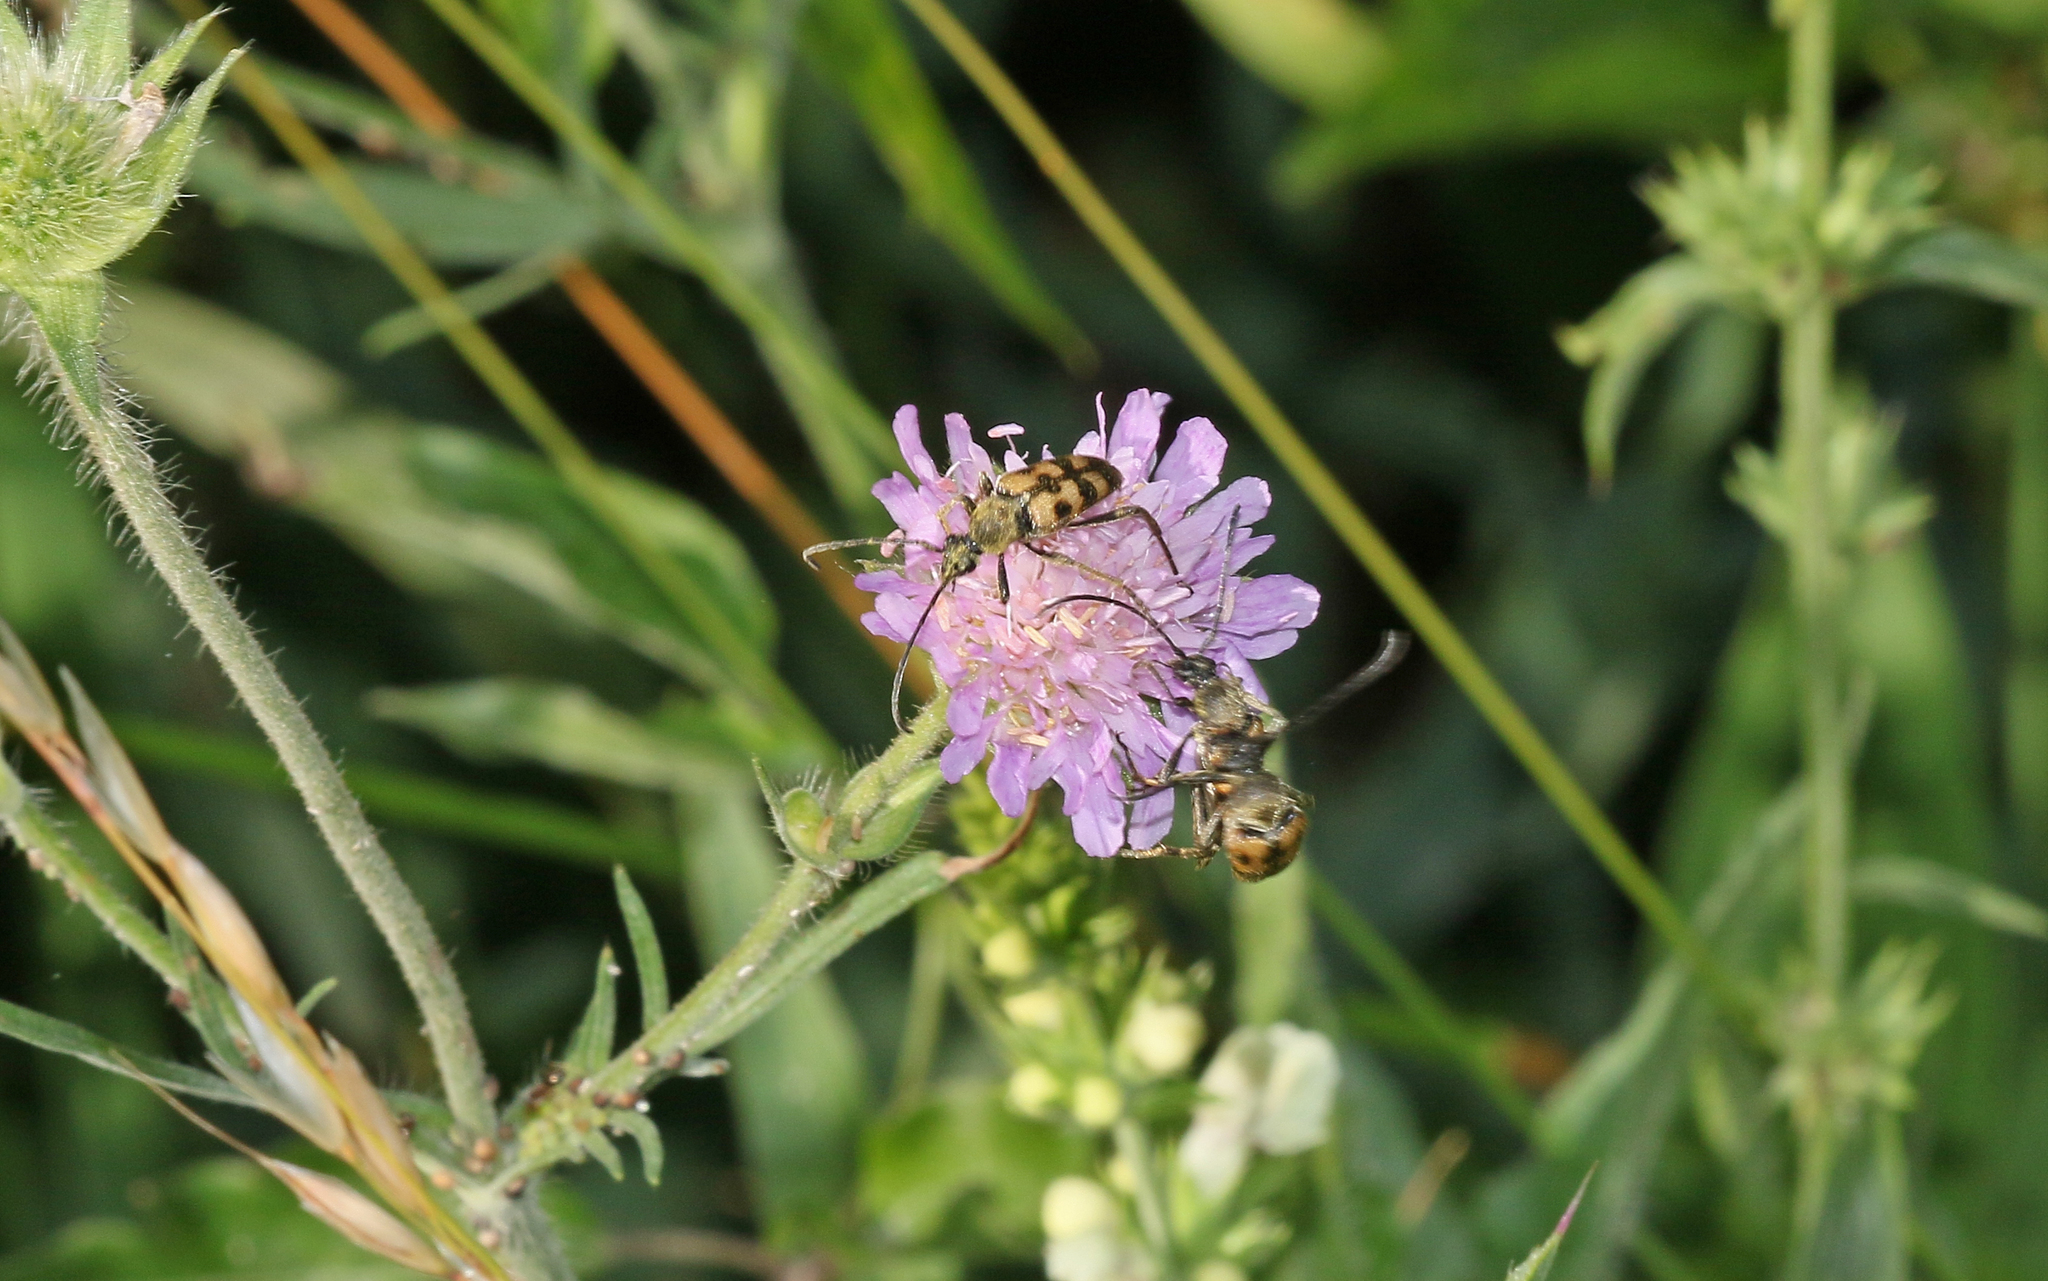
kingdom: Animalia
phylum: Arthropoda
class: Insecta
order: Coleoptera
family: Cerambycidae
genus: Pachytodes
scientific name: Pachytodes
